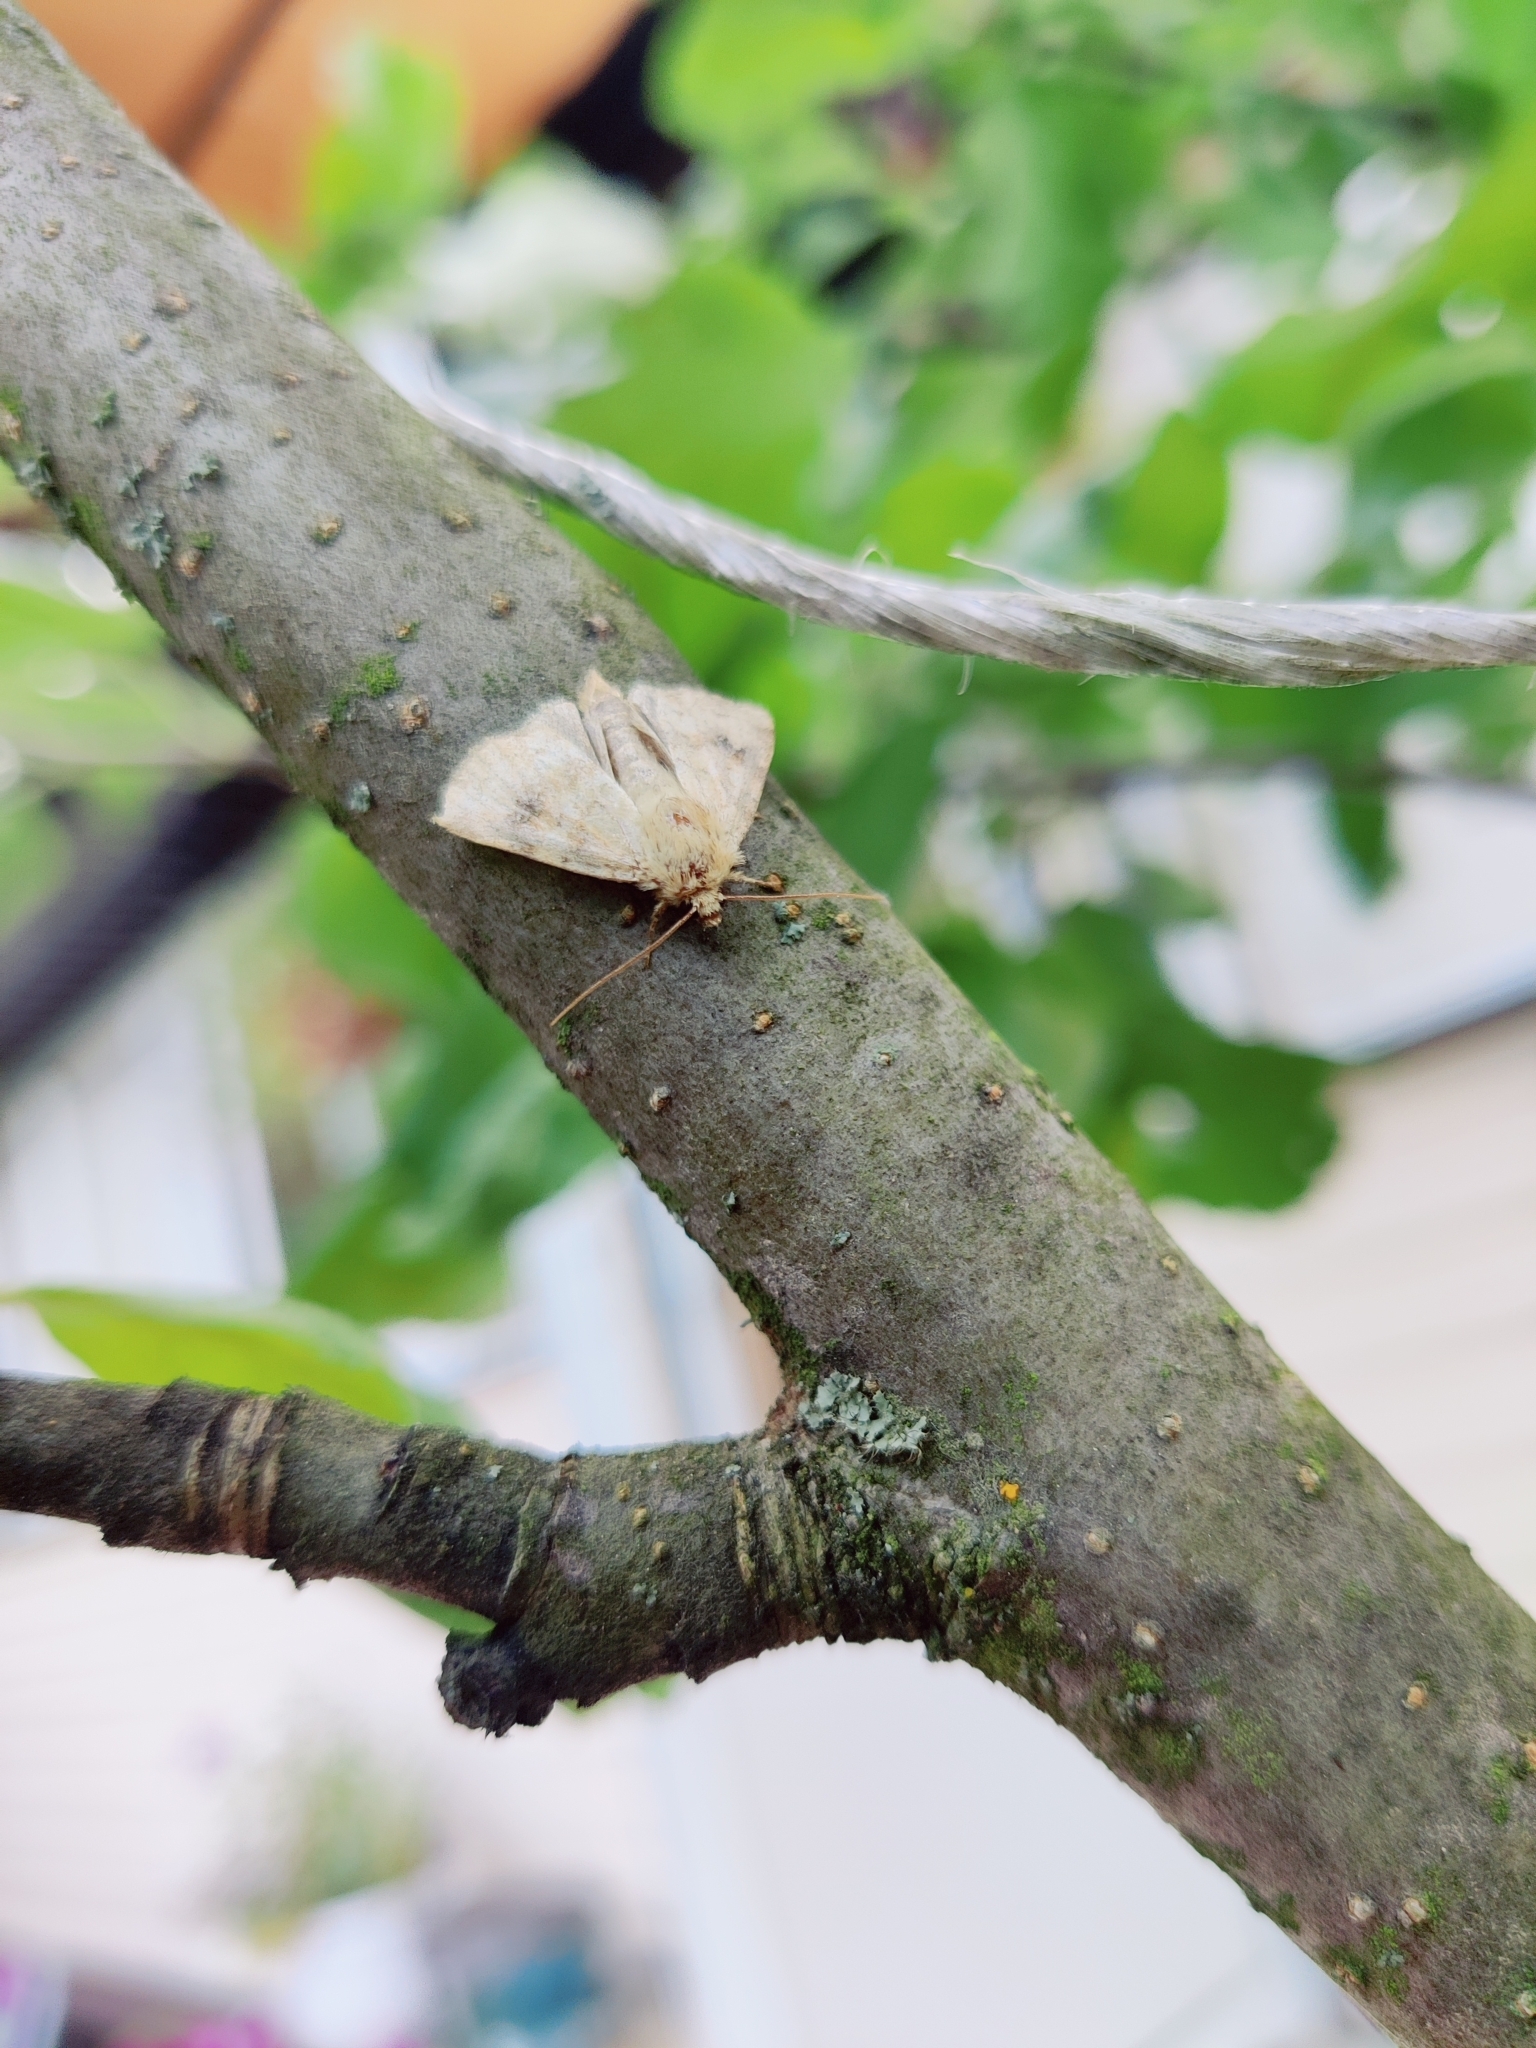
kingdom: Animalia
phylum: Arthropoda
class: Insecta
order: Lepidoptera
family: Noctuidae
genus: Atypha
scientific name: Atypha pulmonaris
